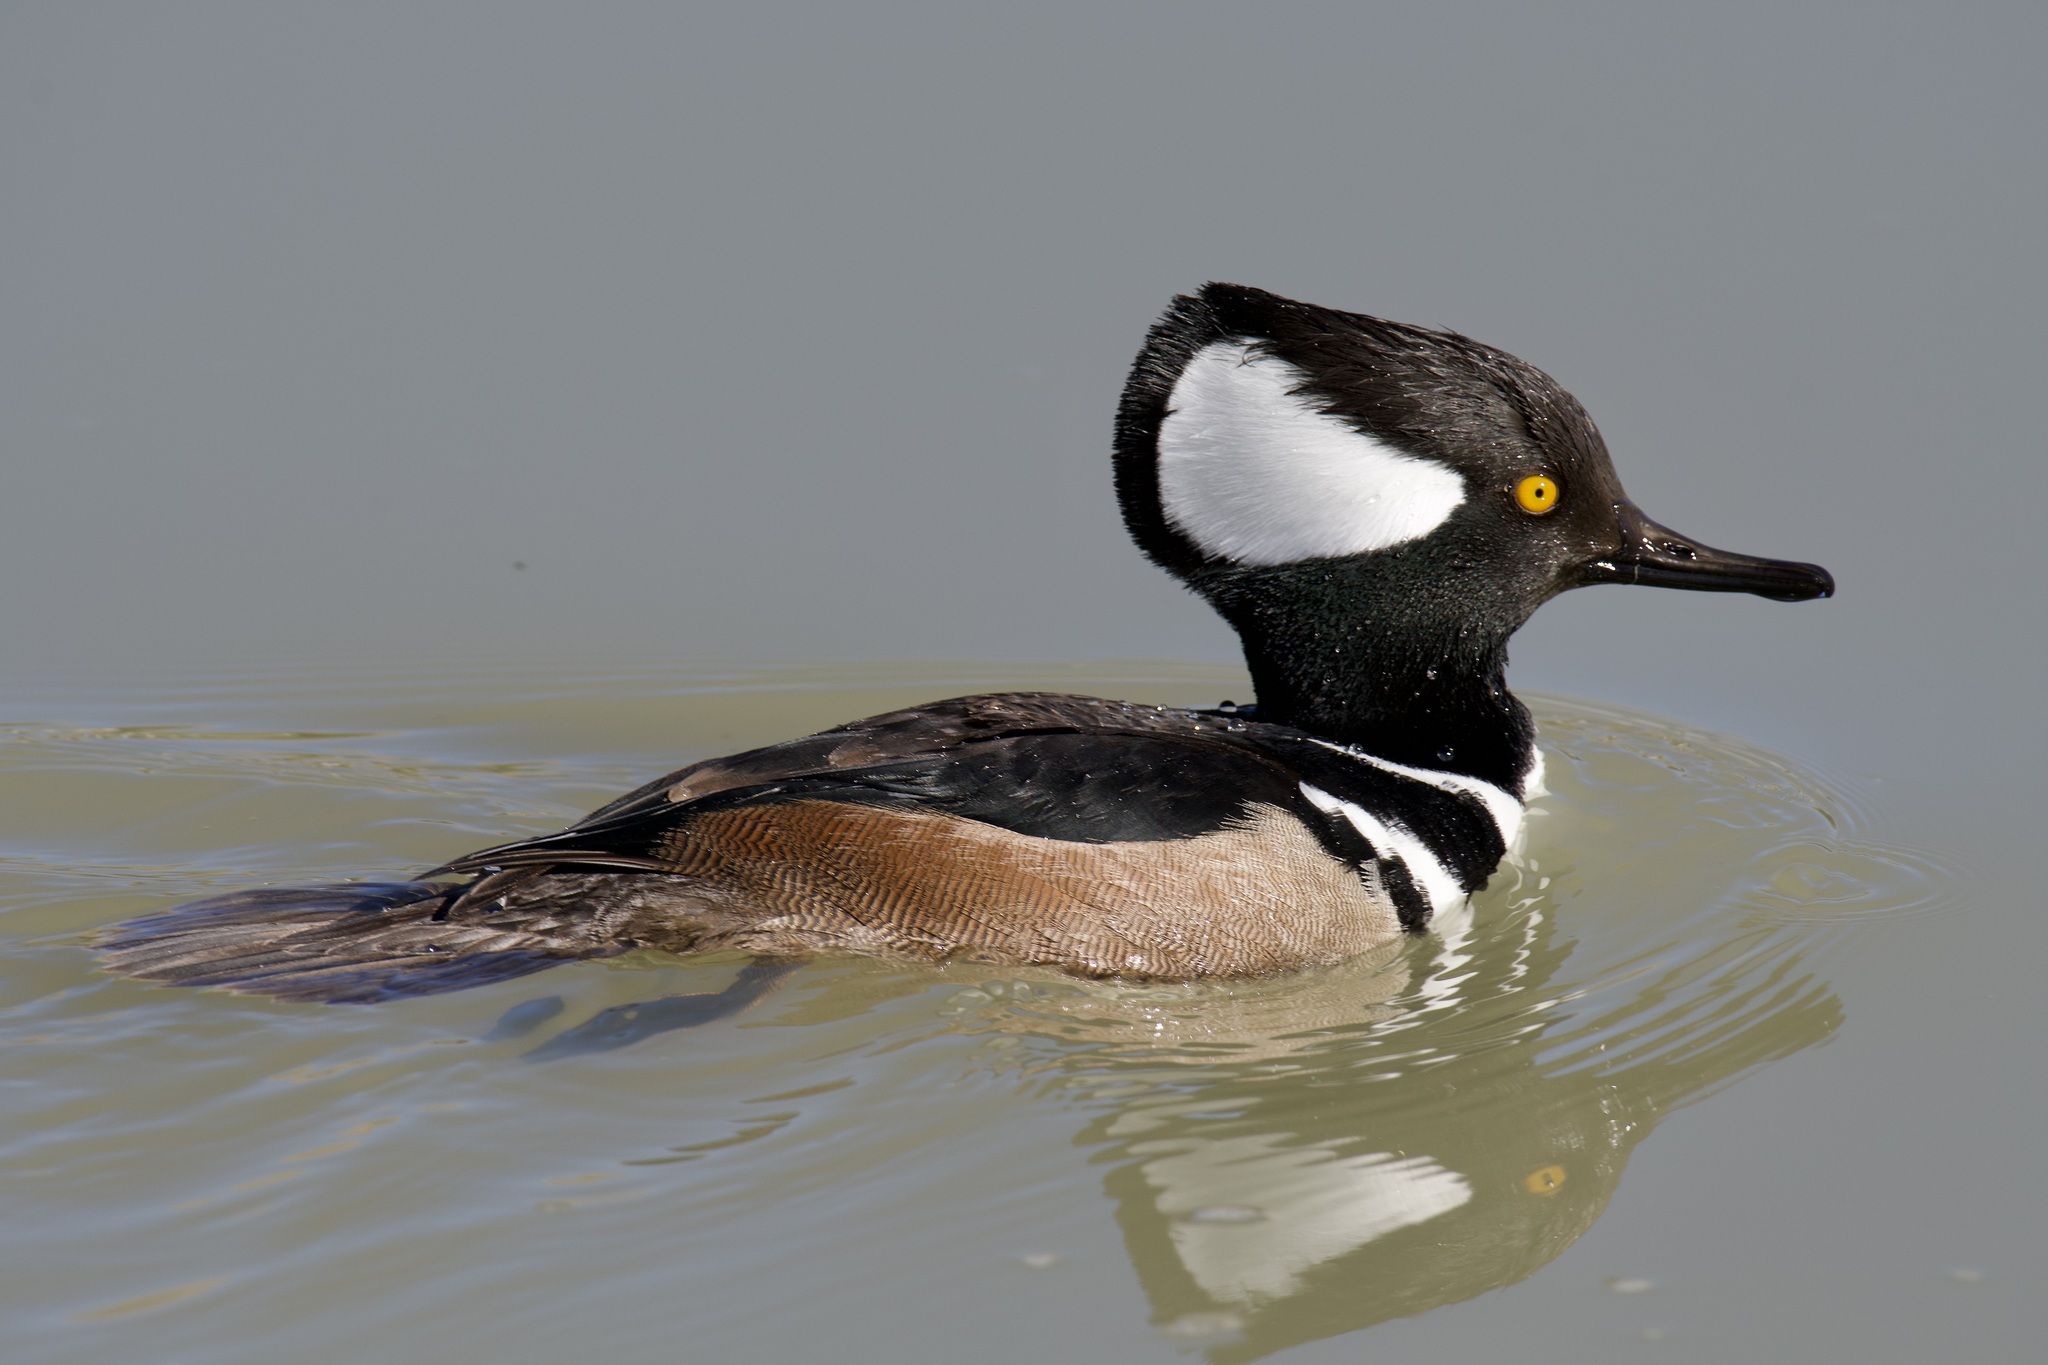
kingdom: Animalia
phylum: Chordata
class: Aves
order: Anseriformes
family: Anatidae
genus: Lophodytes
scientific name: Lophodytes cucullatus
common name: Hooded merganser
